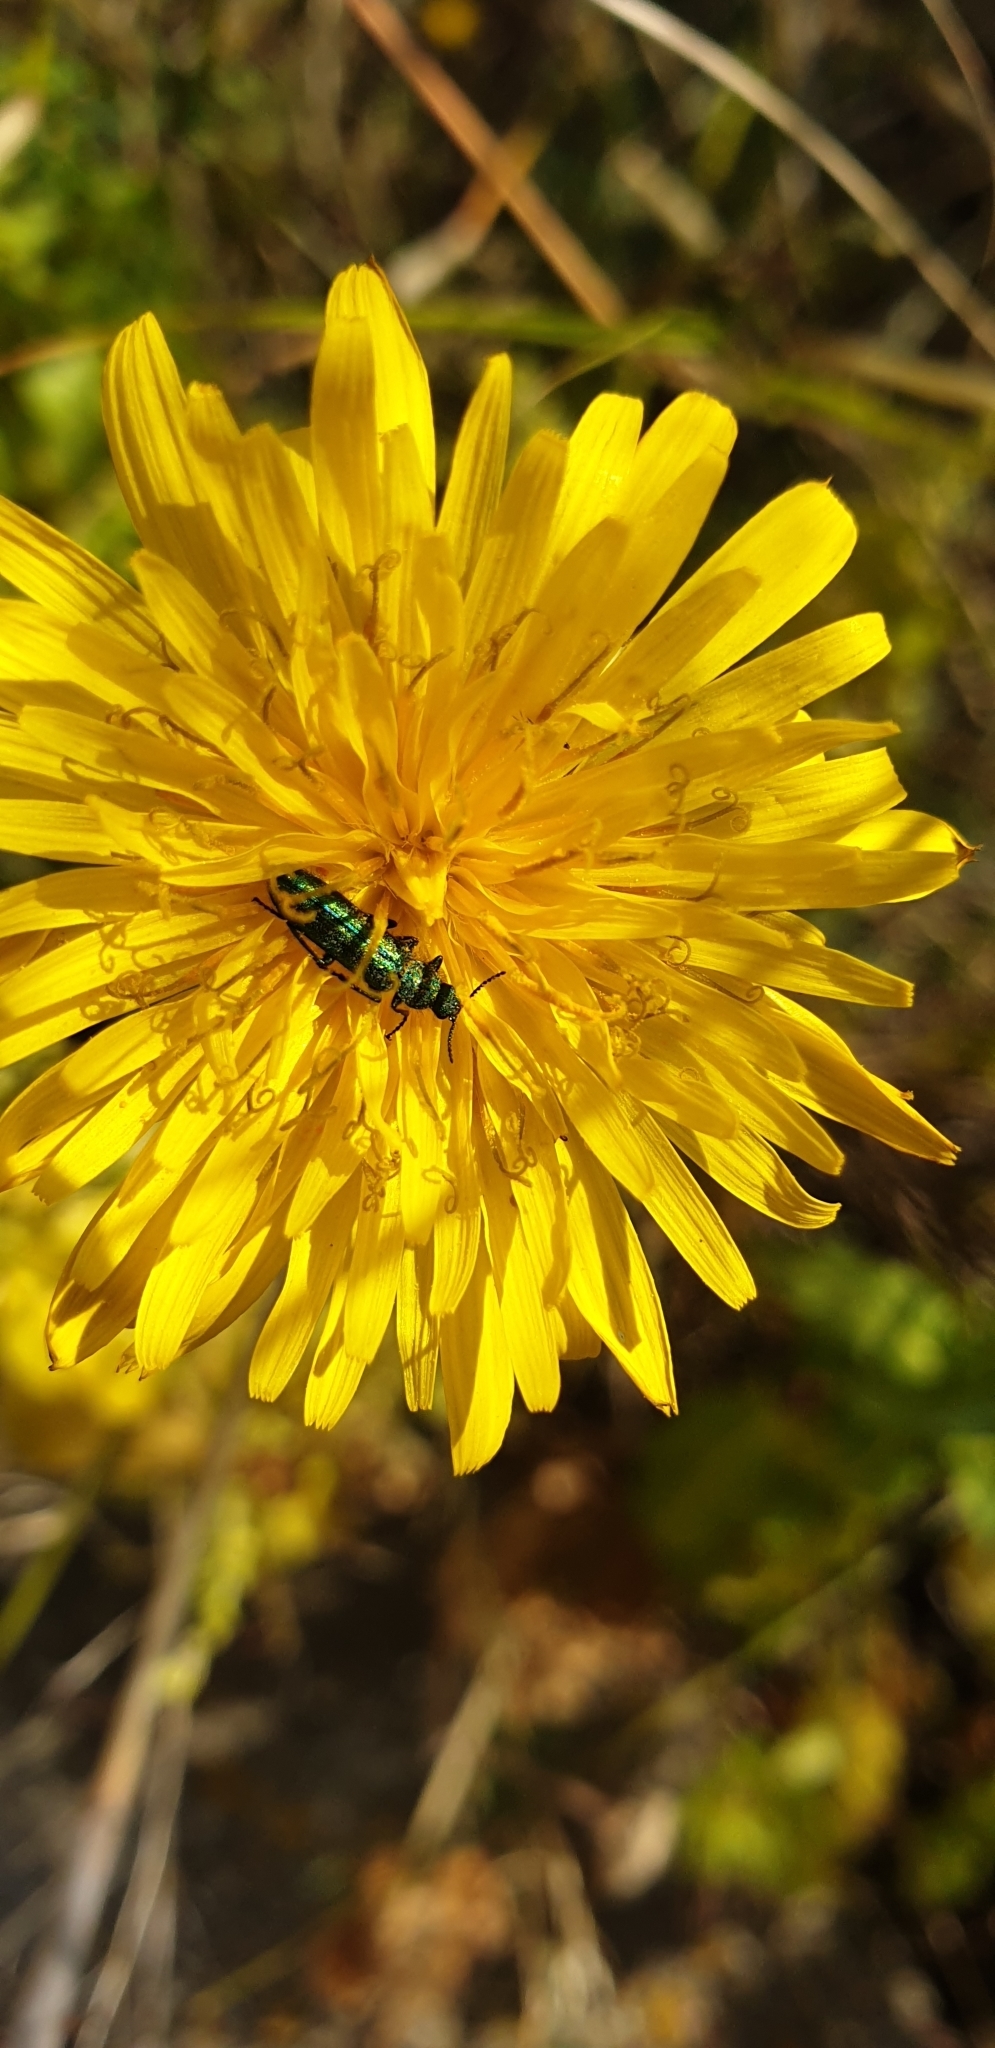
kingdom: Animalia
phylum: Arthropoda
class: Insecta
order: Coleoptera
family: Dasytidae
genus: Psilothrix
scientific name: Psilothrix viridicoerulea
